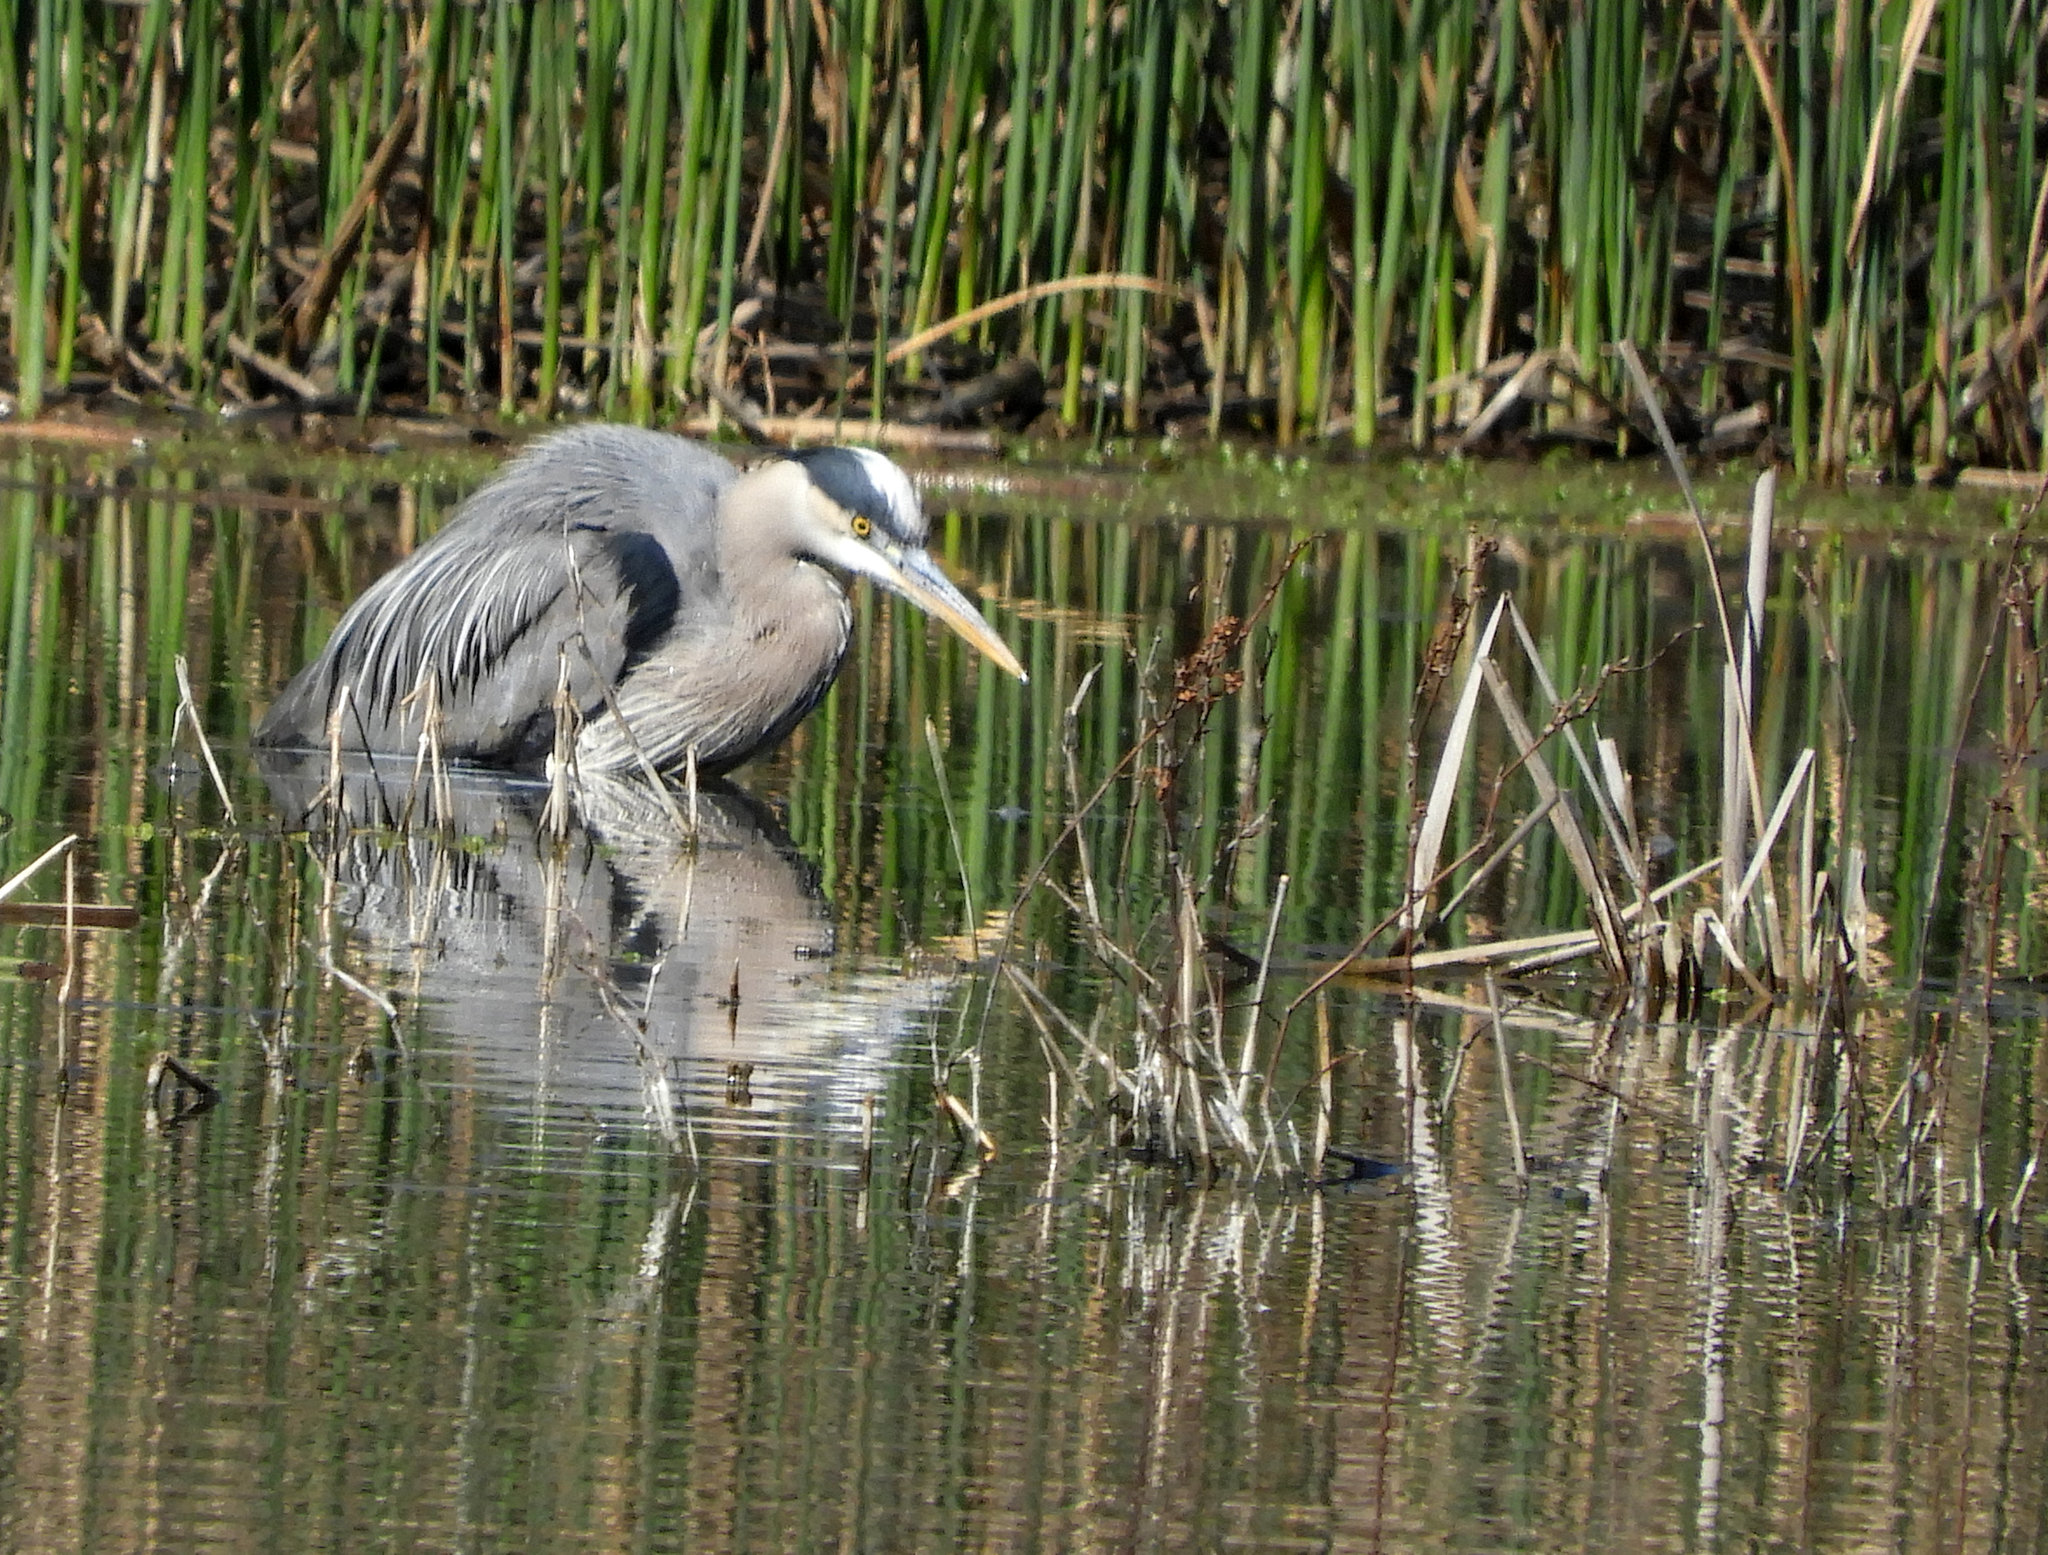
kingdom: Animalia
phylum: Chordata
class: Aves
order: Pelecaniformes
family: Ardeidae
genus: Ardea
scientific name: Ardea herodias
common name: Great blue heron
